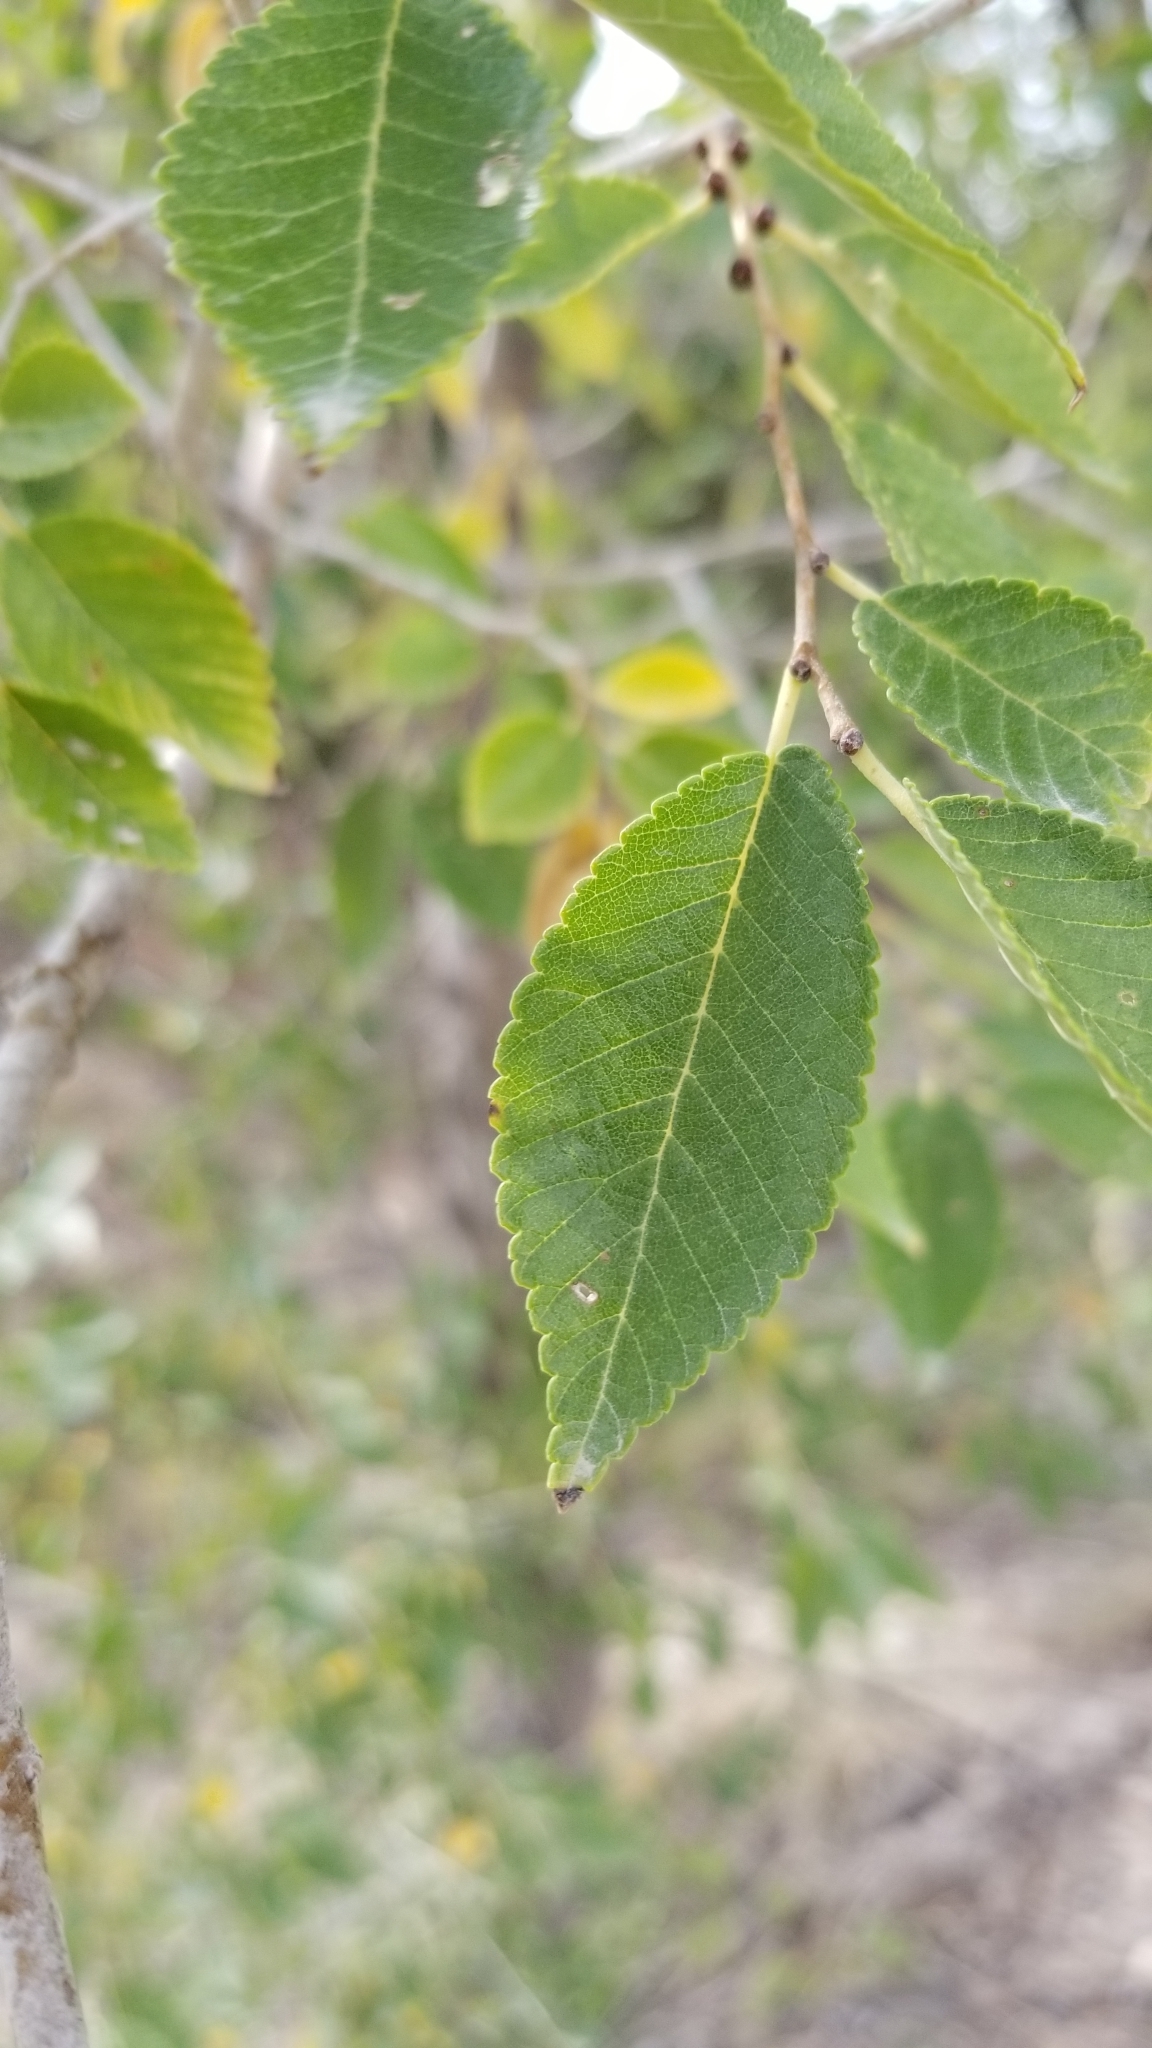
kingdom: Plantae
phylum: Tracheophyta
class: Magnoliopsida
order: Rosales
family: Ulmaceae
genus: Ulmus
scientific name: Ulmus pumila
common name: Siberian elm
